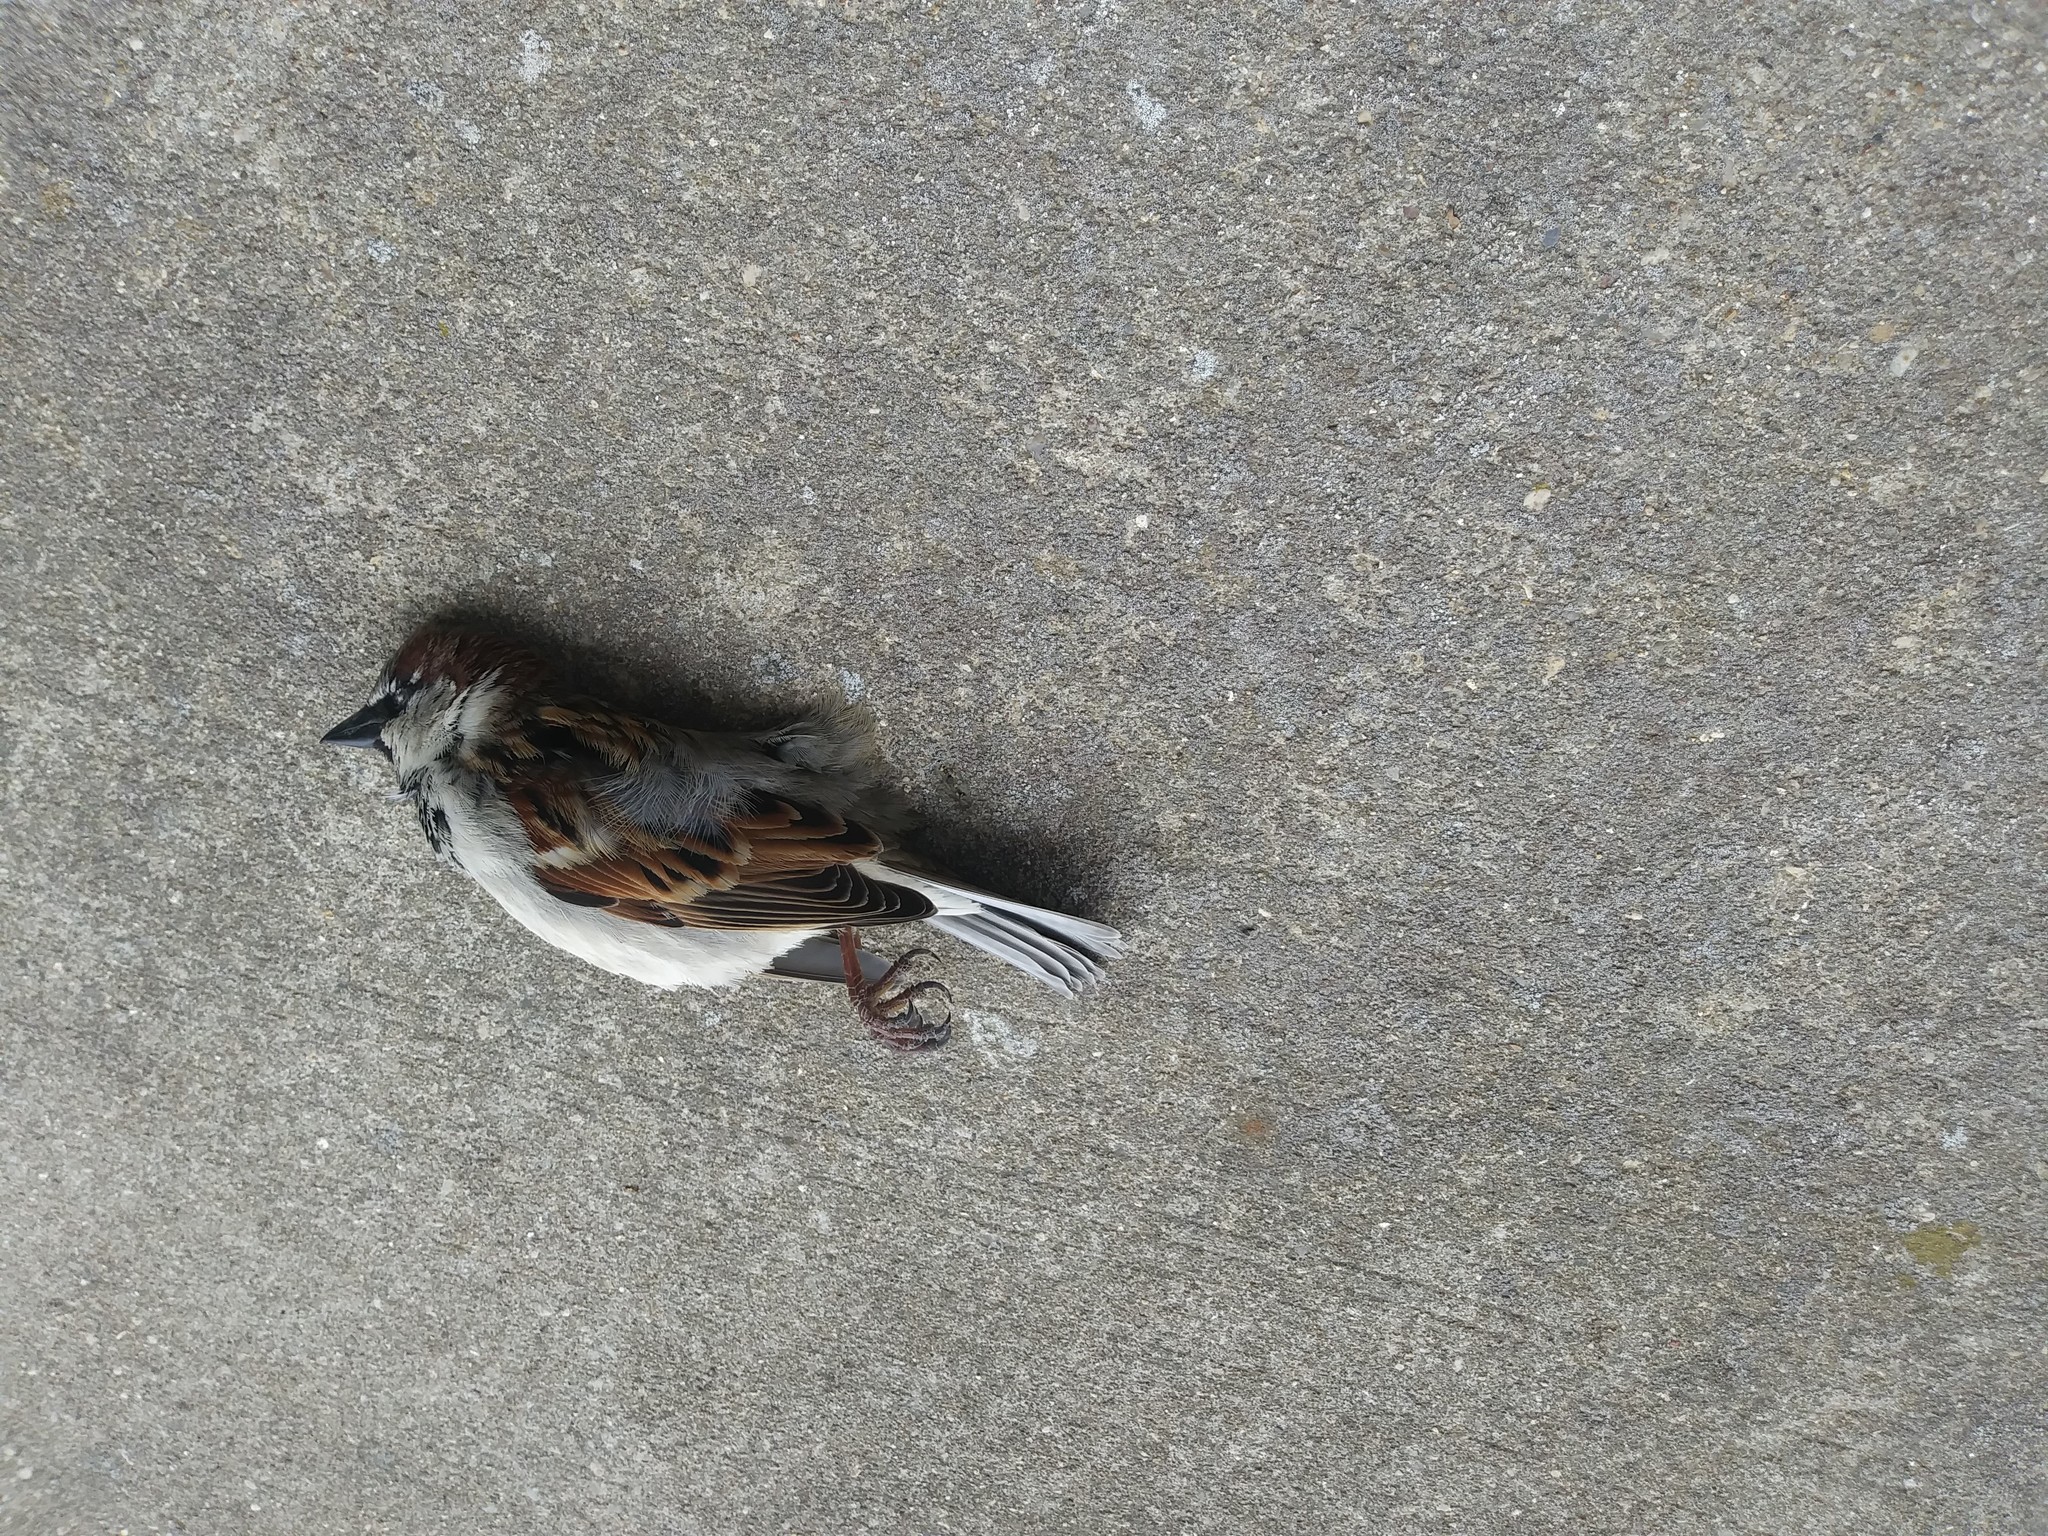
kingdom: Animalia
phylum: Chordata
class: Aves
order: Passeriformes
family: Passeridae
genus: Passer
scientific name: Passer domesticus
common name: House sparrow
